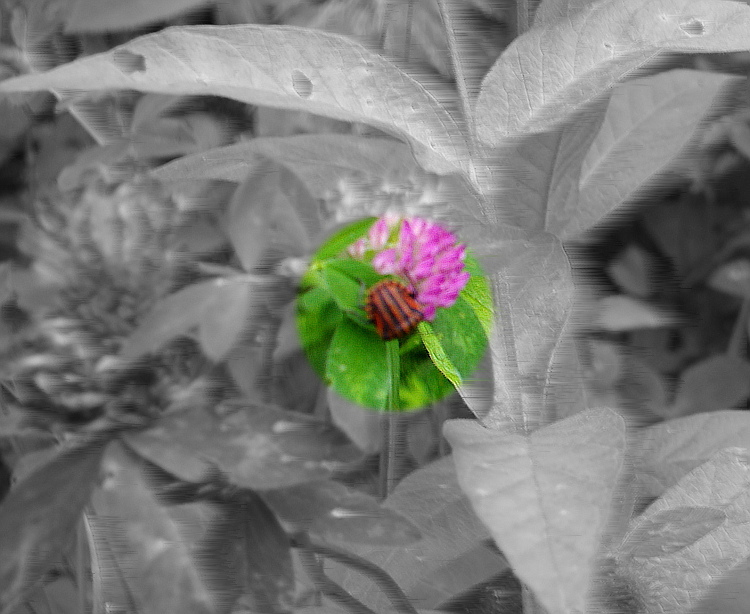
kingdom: Animalia
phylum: Arthropoda
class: Insecta
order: Hemiptera
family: Pentatomidae
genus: Graphosoma
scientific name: Graphosoma italicum
